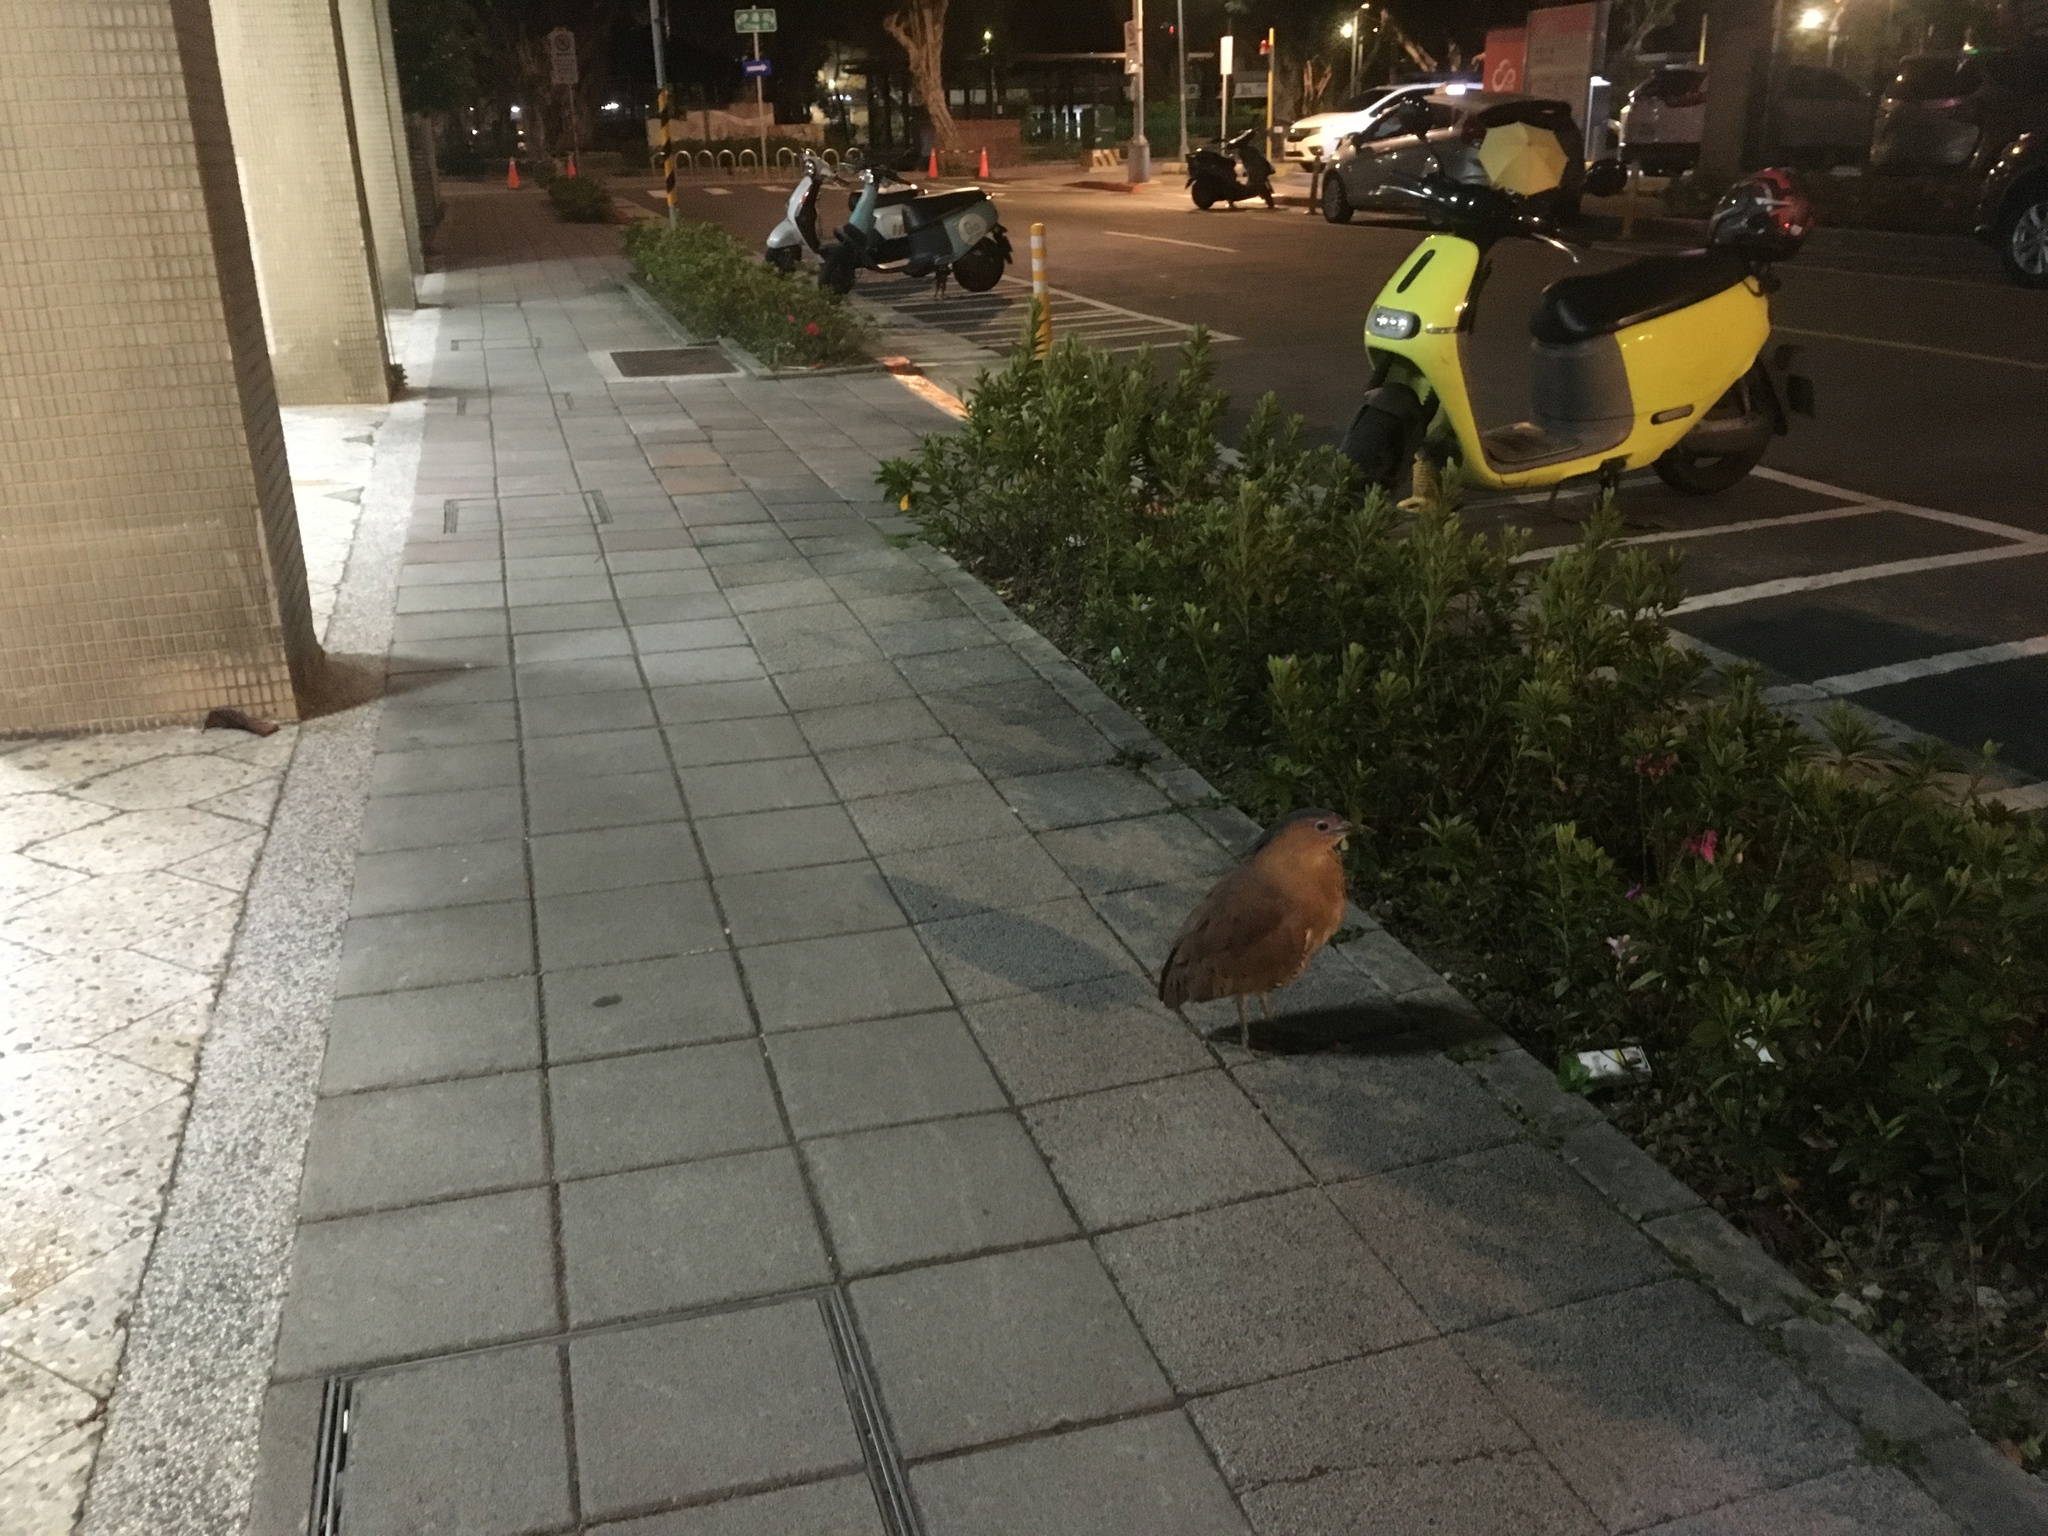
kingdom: Animalia
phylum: Chordata
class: Aves
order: Pelecaniformes
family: Ardeidae
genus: Gorsachius
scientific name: Gorsachius melanolophus
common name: Malayan night heron
